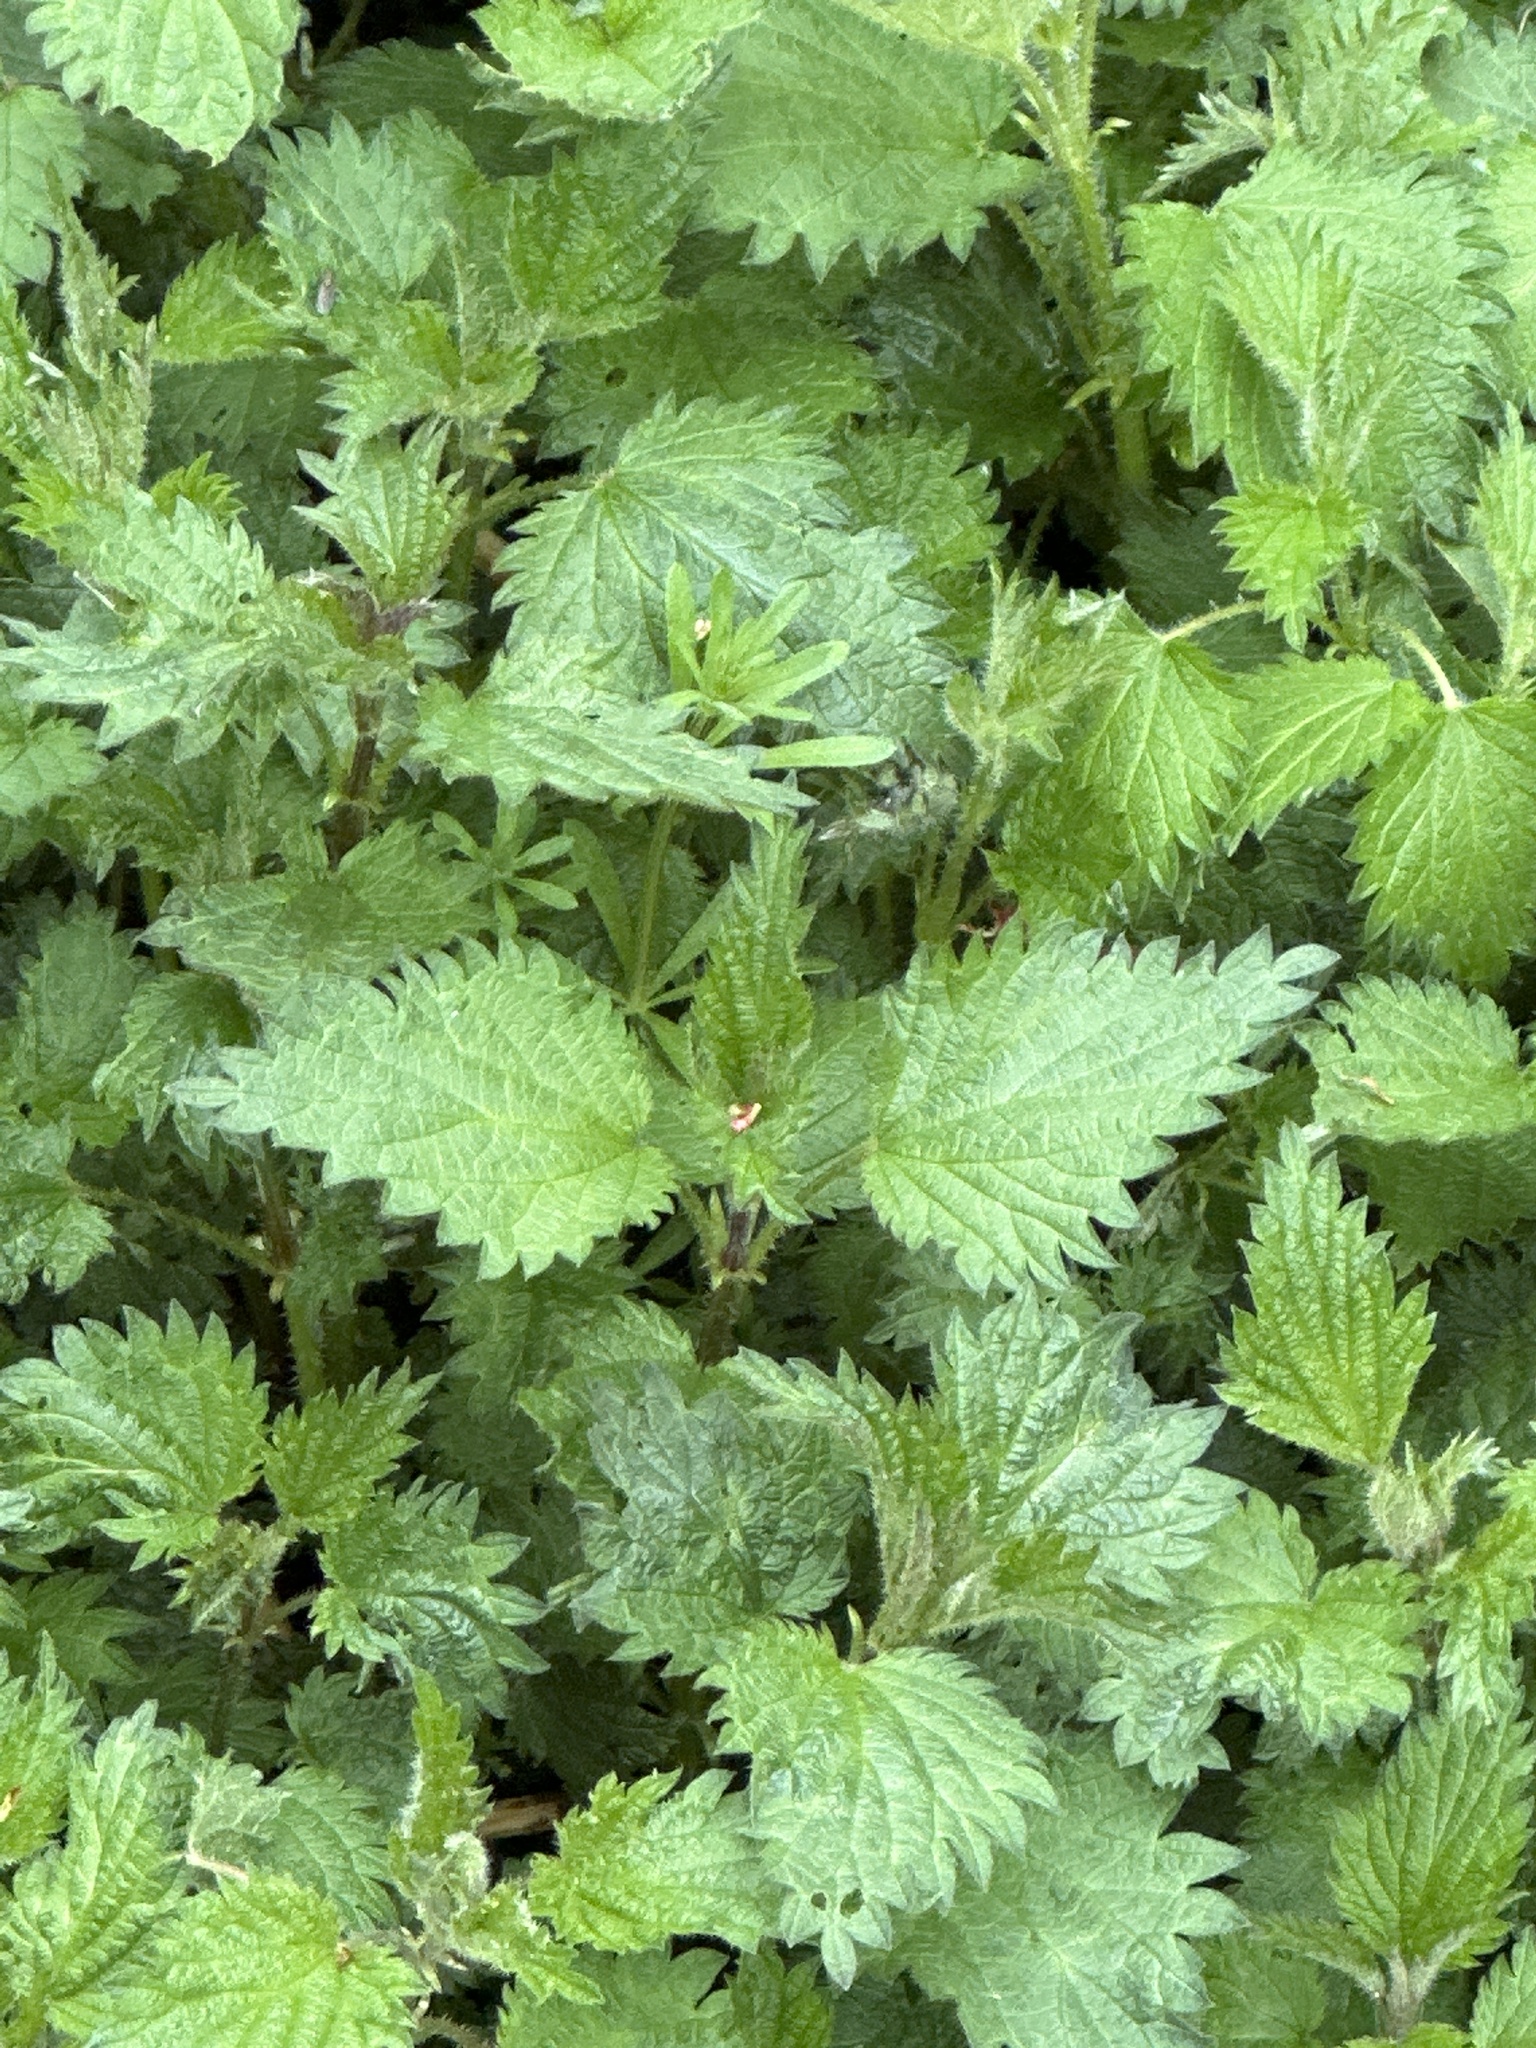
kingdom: Plantae
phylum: Tracheophyta
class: Magnoliopsida
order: Rosales
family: Urticaceae
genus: Urtica
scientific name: Urtica dioica
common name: Common nettle
